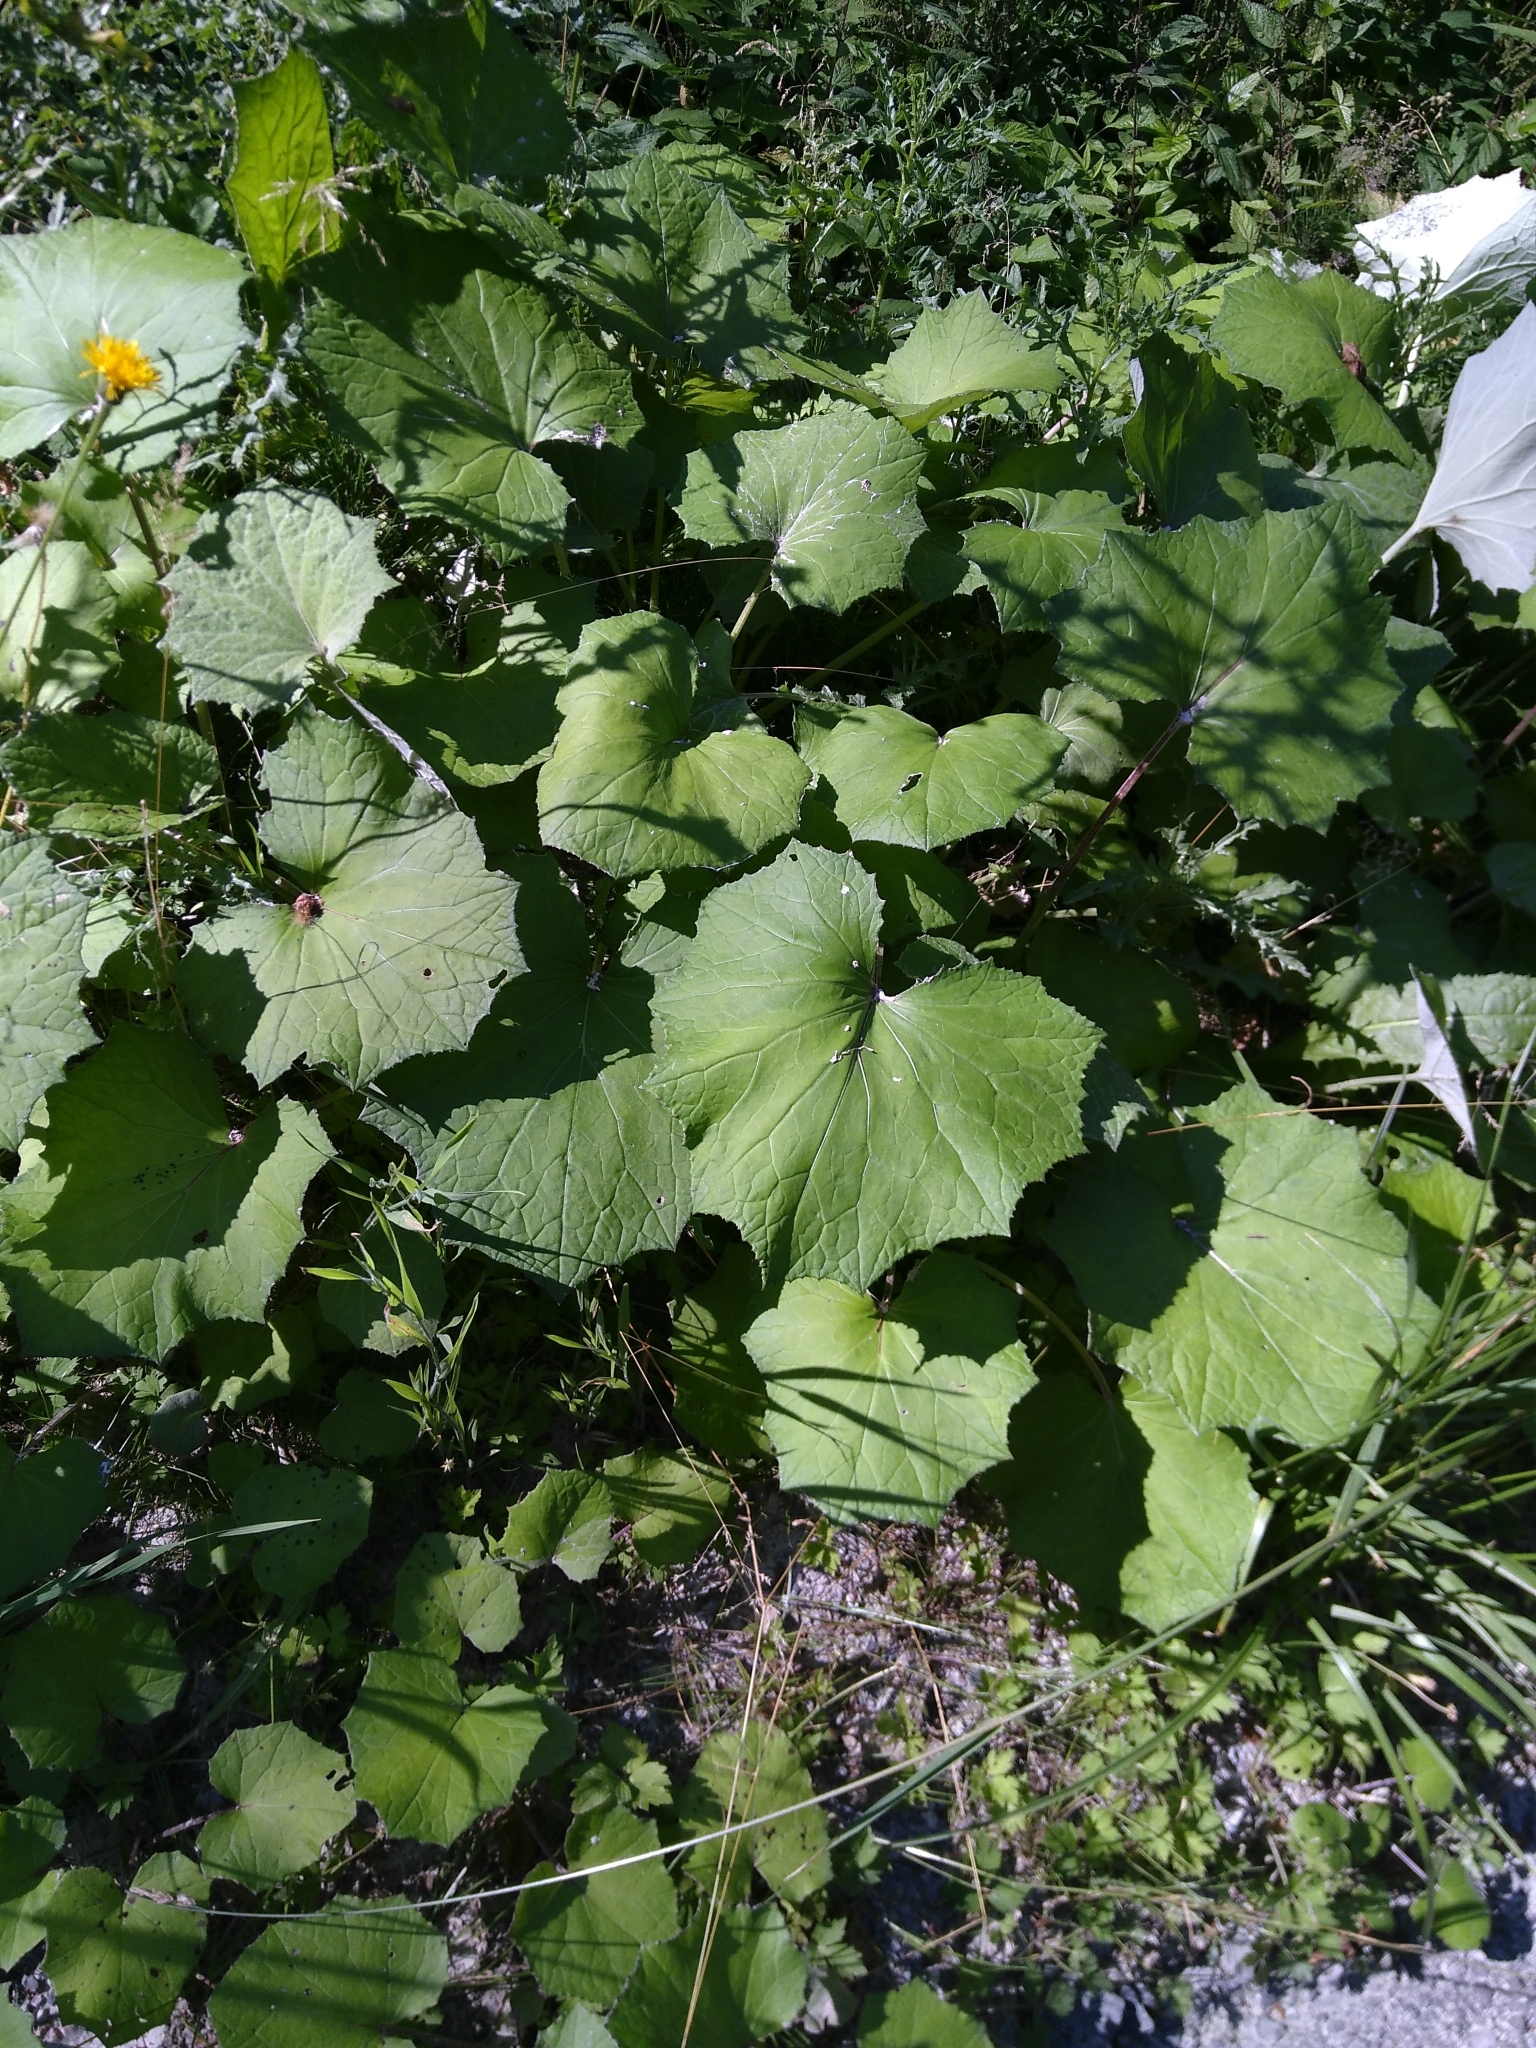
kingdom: Plantae
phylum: Tracheophyta
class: Magnoliopsida
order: Asterales
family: Asteraceae
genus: Tussilago
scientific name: Tussilago farfara
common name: Coltsfoot
